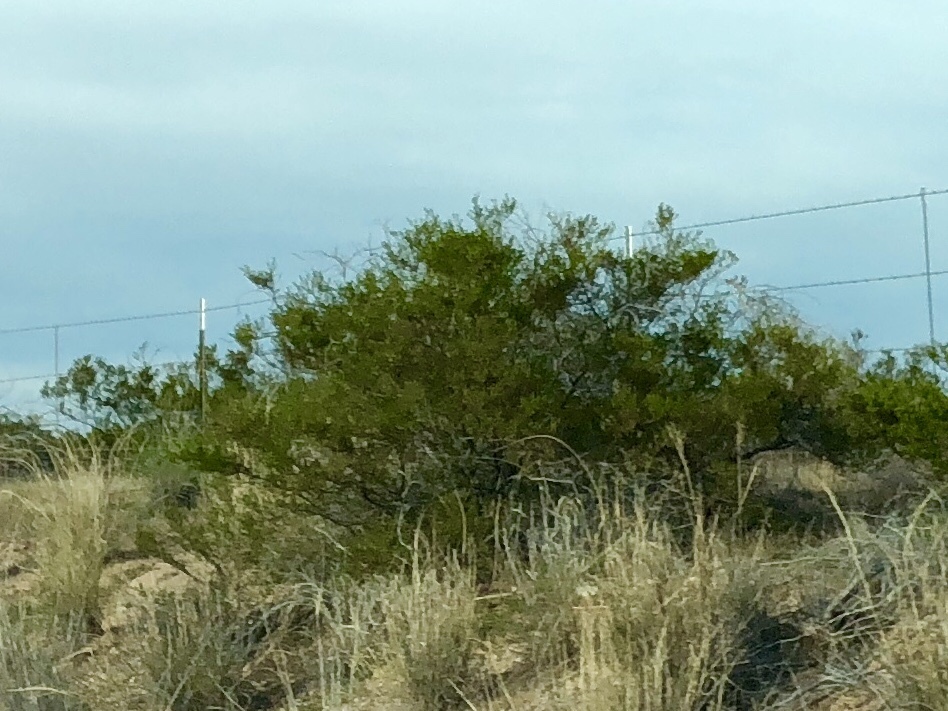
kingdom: Plantae
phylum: Tracheophyta
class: Magnoliopsida
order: Zygophyllales
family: Zygophyllaceae
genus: Larrea
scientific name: Larrea tridentata
